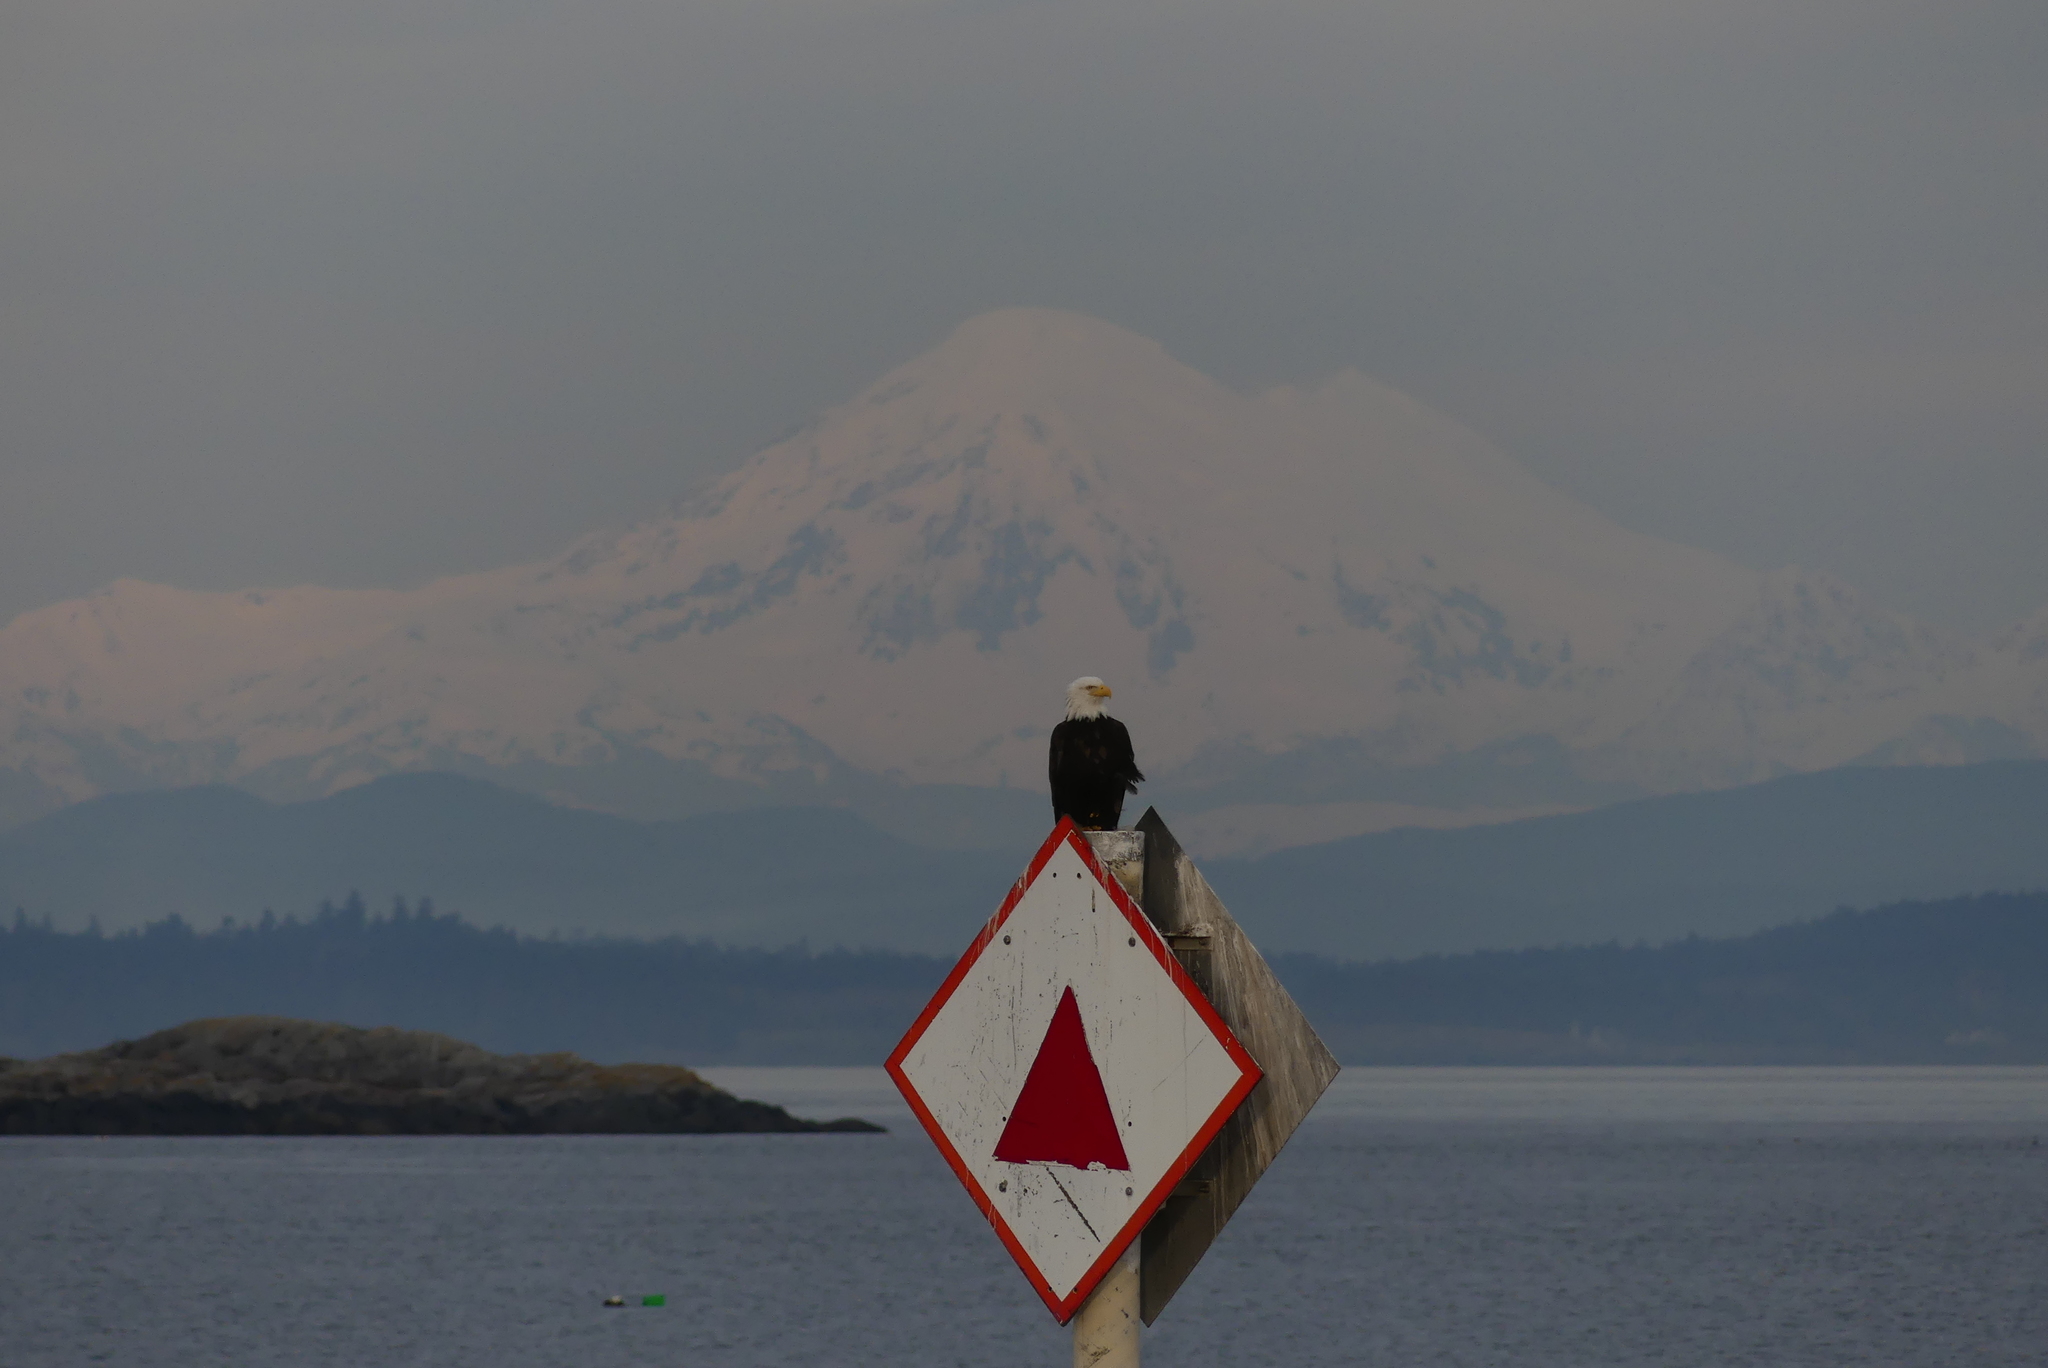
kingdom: Animalia
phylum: Chordata
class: Aves
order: Accipitriformes
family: Accipitridae
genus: Haliaeetus
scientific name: Haliaeetus leucocephalus
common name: Bald eagle
